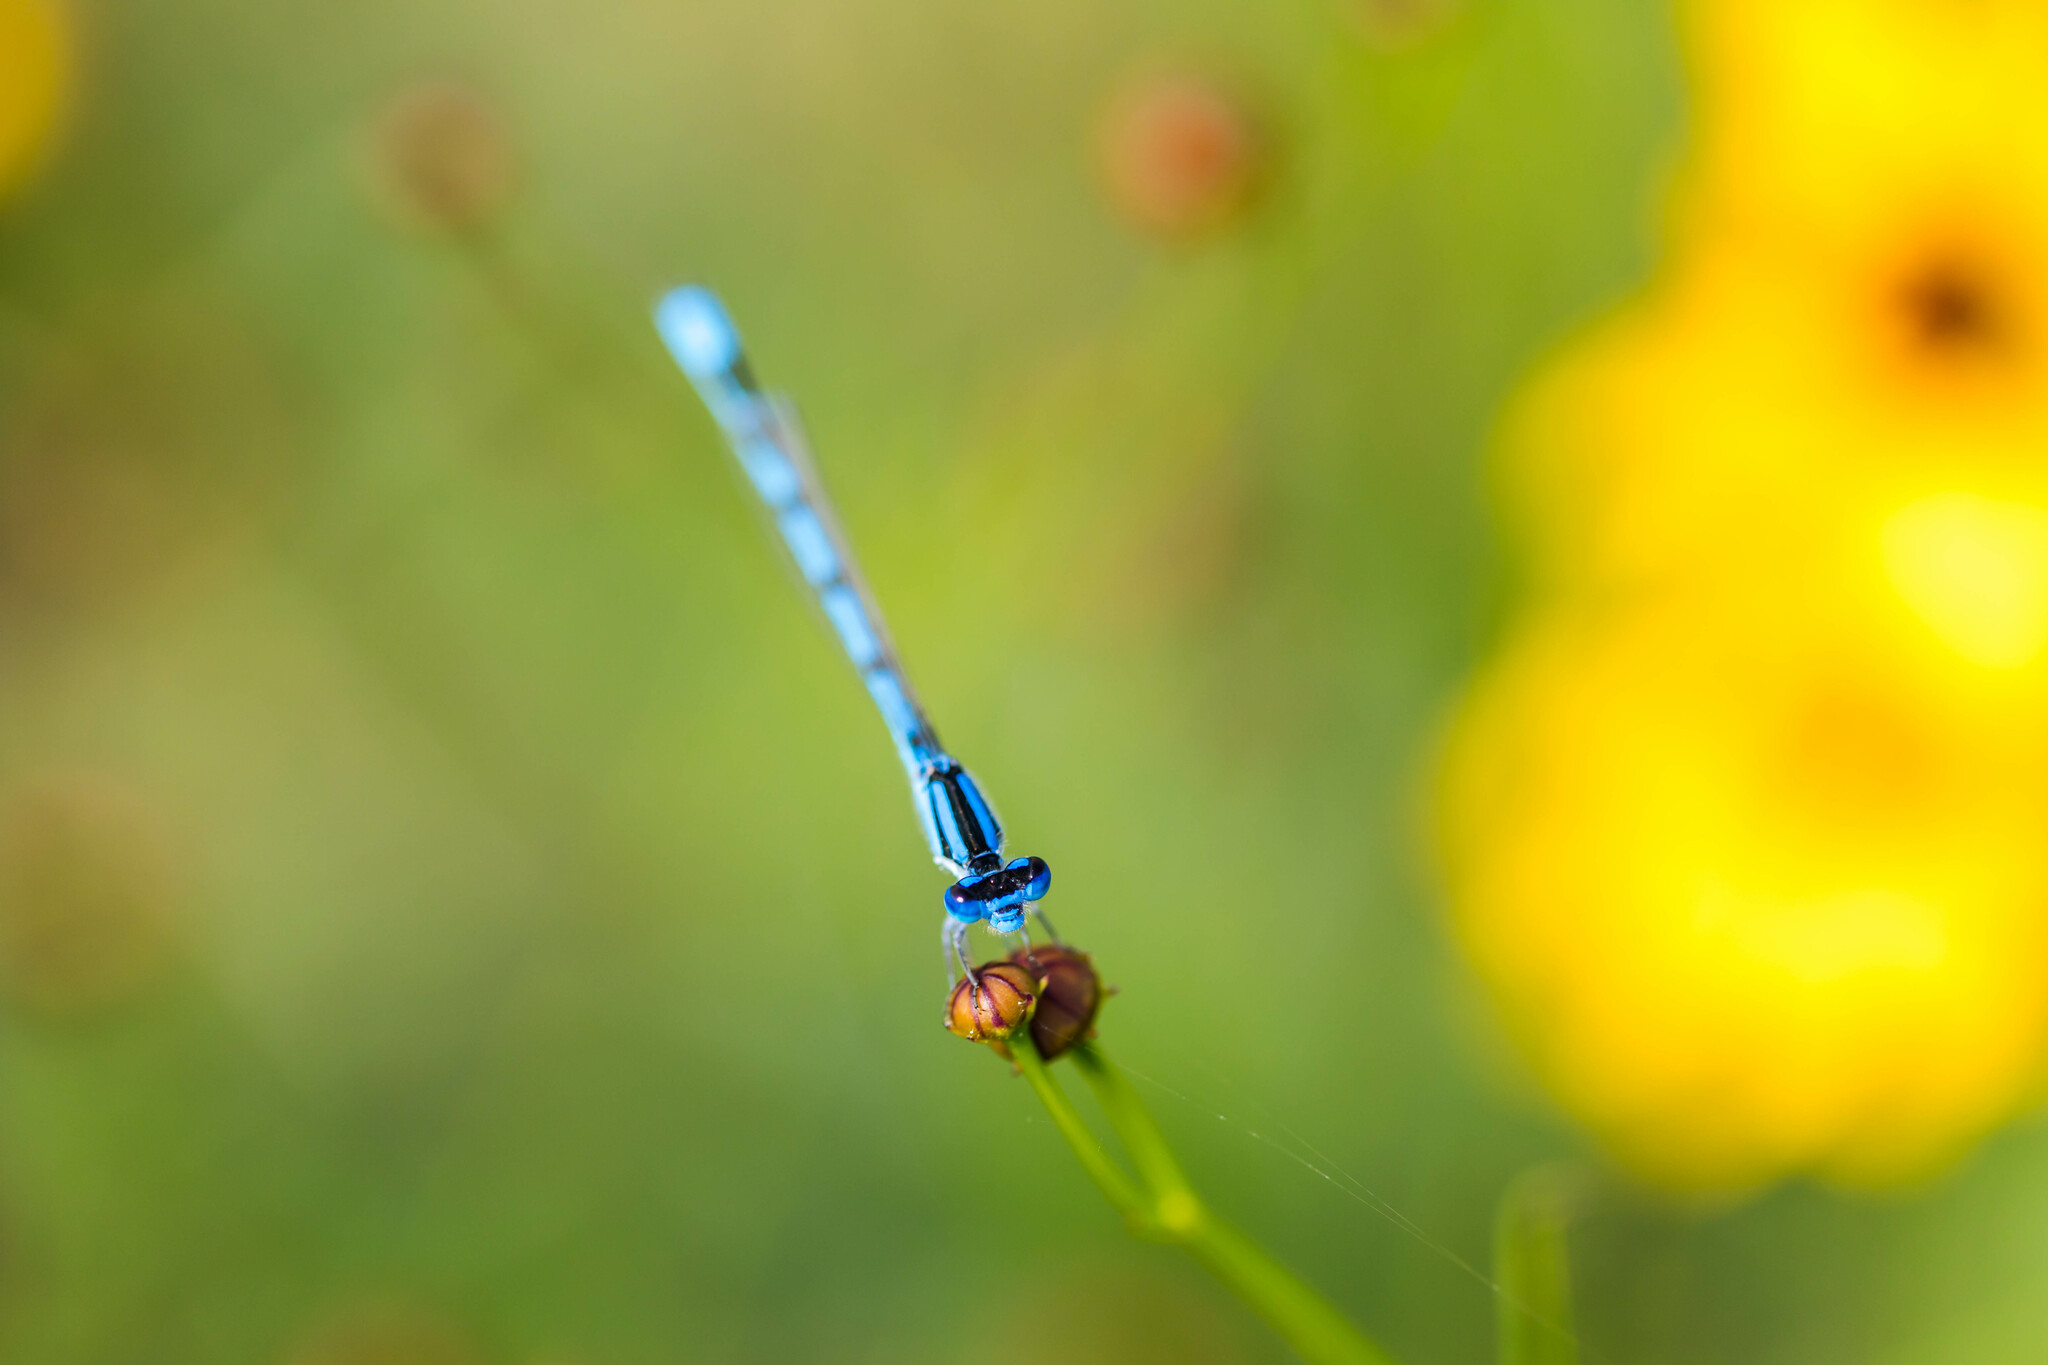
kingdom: Animalia
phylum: Arthropoda
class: Insecta
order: Odonata
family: Coenagrionidae
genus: Enallagma
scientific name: Enallagma civile
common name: Damselfly
